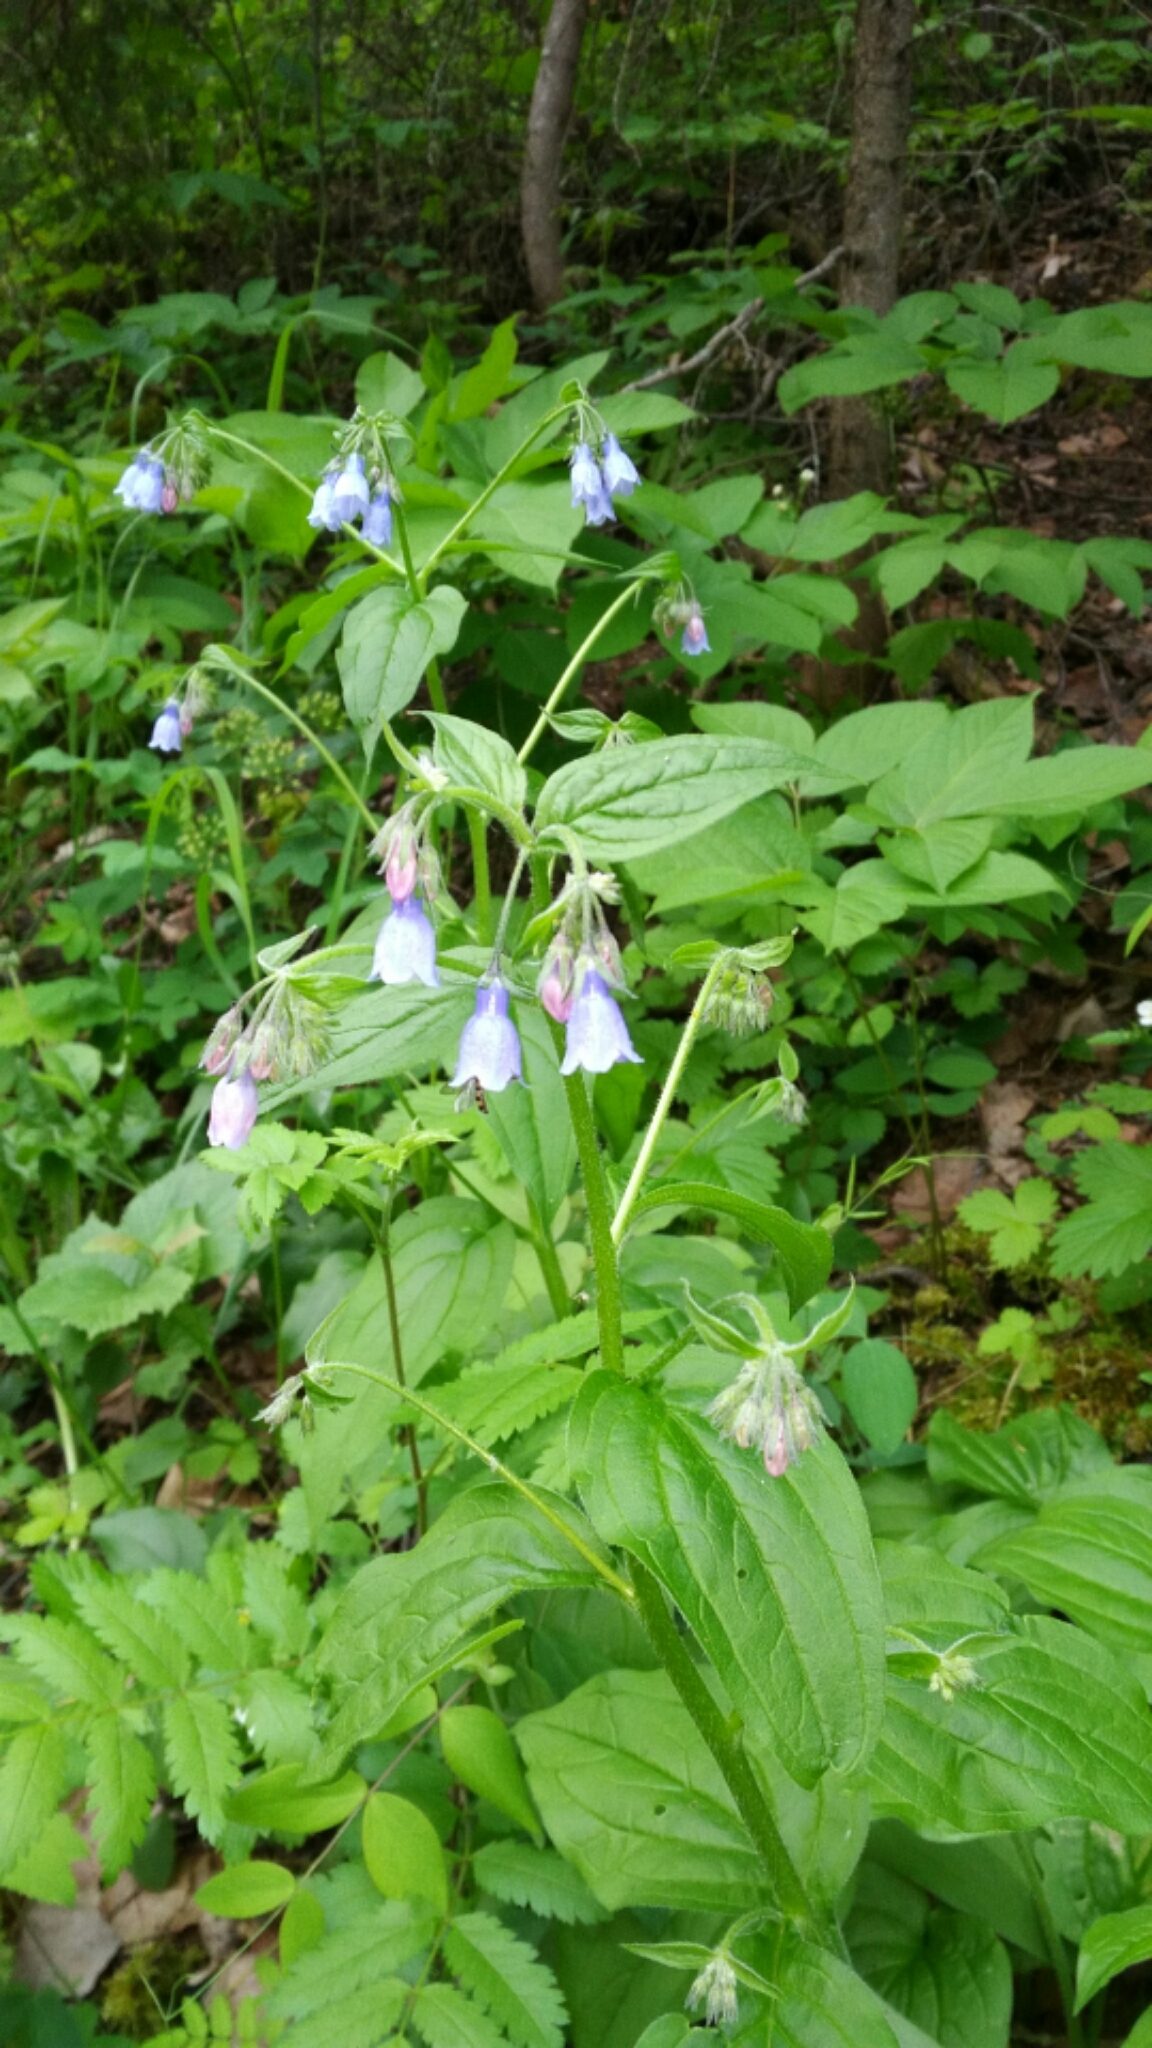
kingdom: Plantae
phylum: Tracheophyta
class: Magnoliopsida
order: Boraginales
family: Boraginaceae
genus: Mertensia
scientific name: Mertensia paniculata
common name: Panicled bluebells
